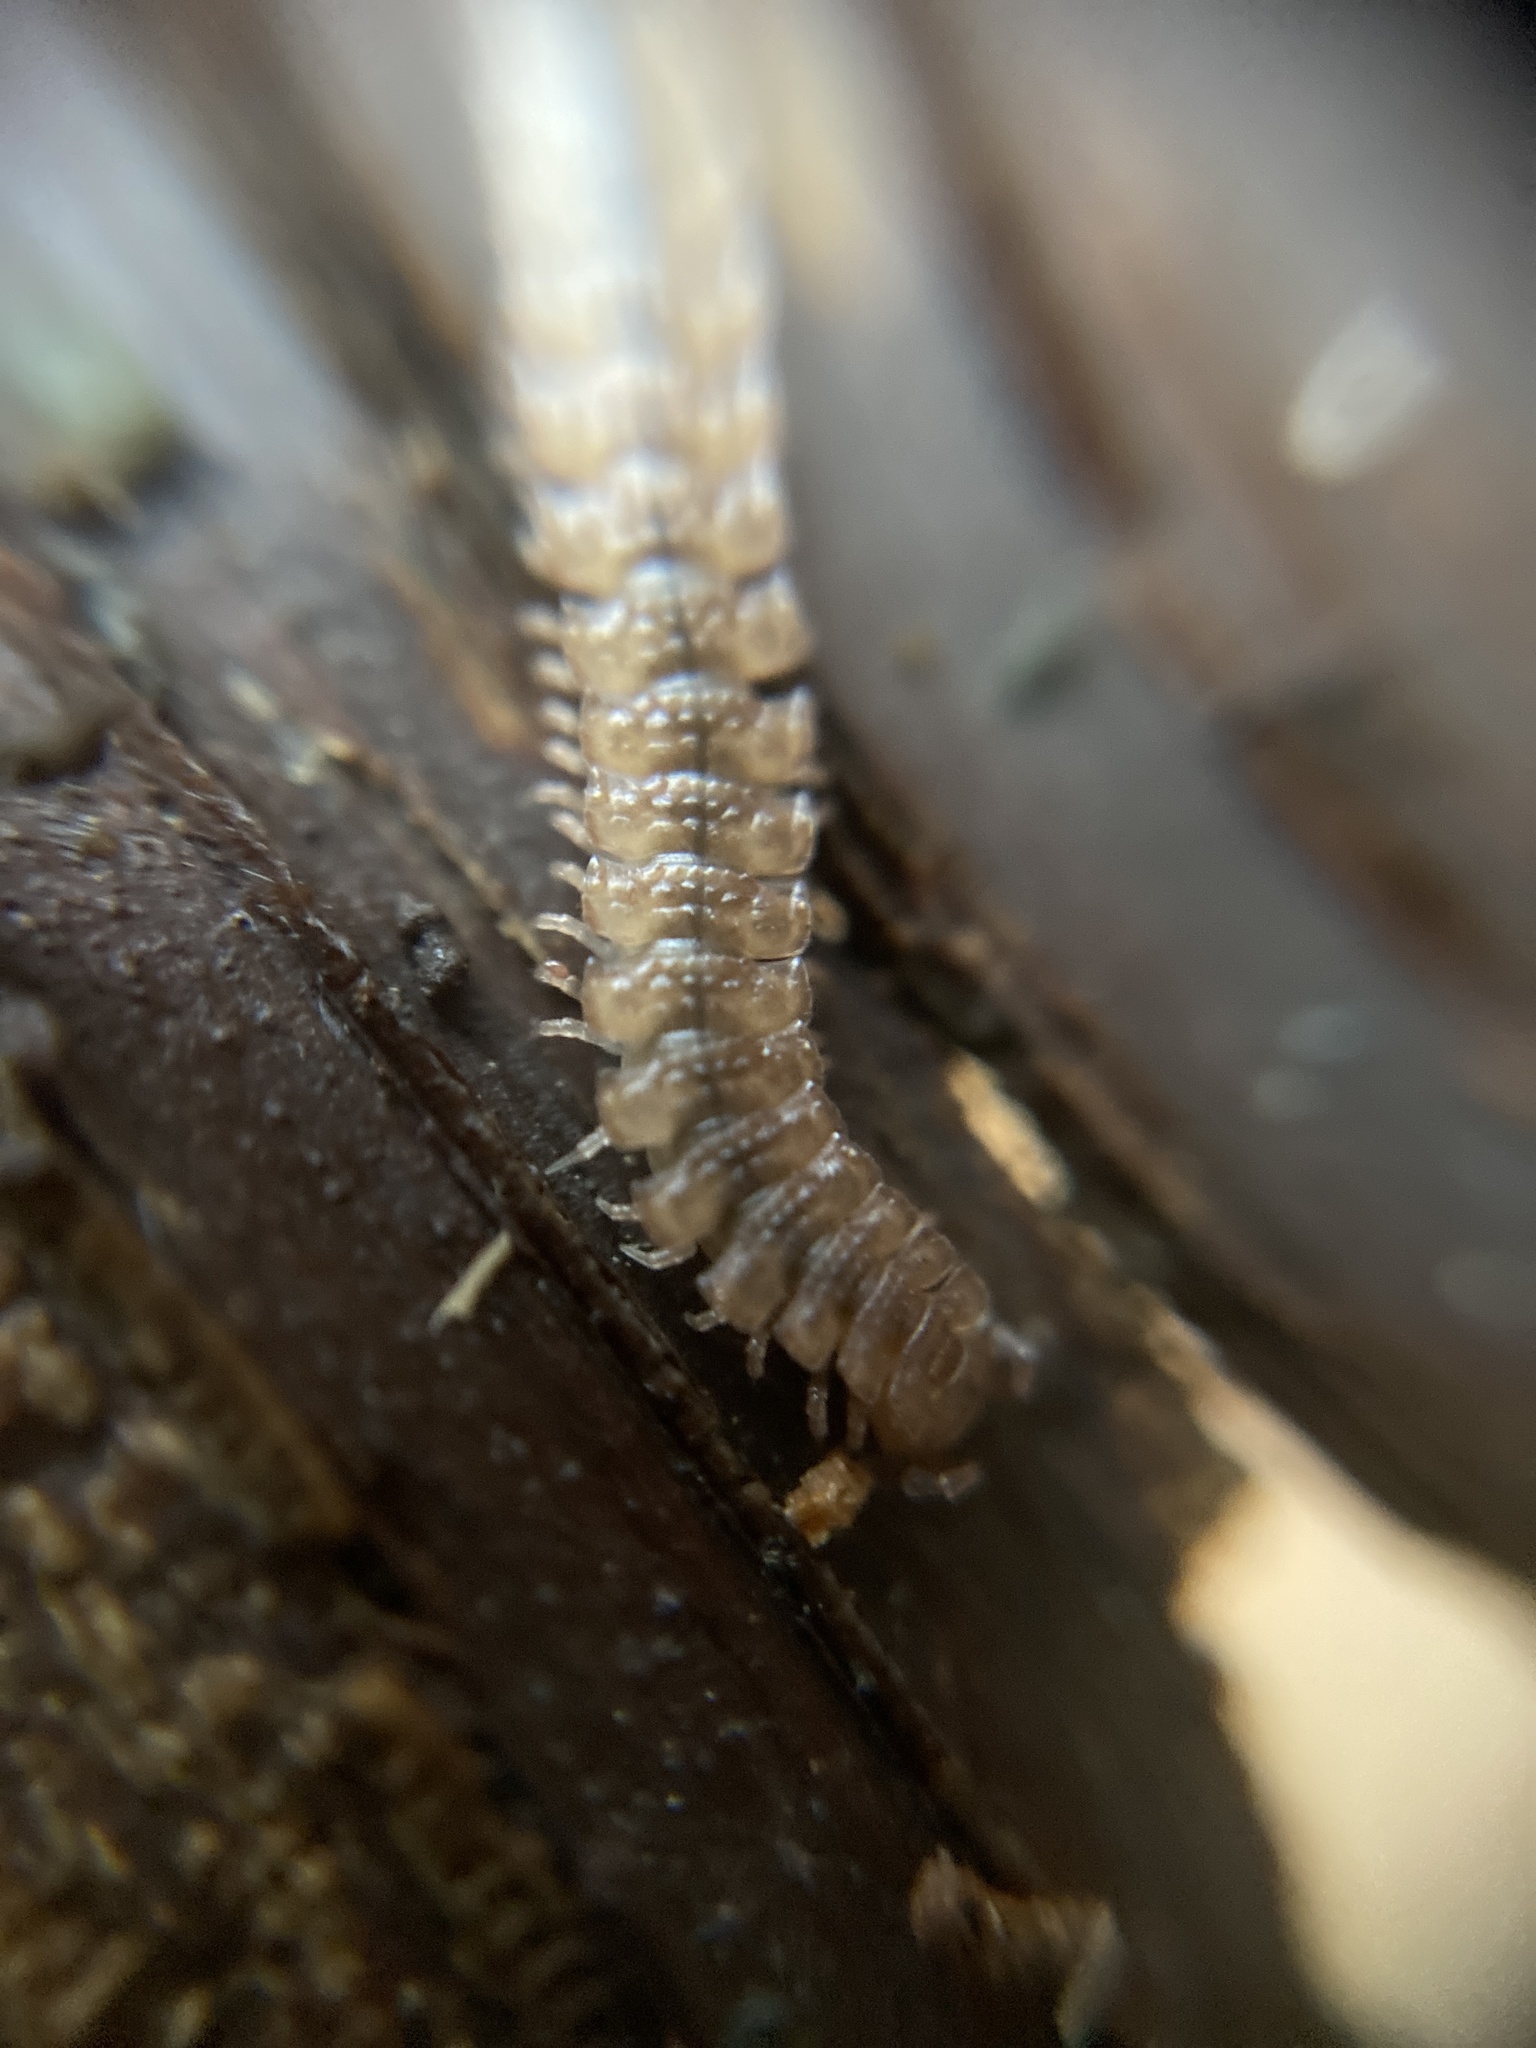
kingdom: Animalia
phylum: Arthropoda
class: Diplopoda
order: Polydesmida
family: Polydesmidae
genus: Polydesmus
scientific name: Polydesmus angustus
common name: Flat millipede
